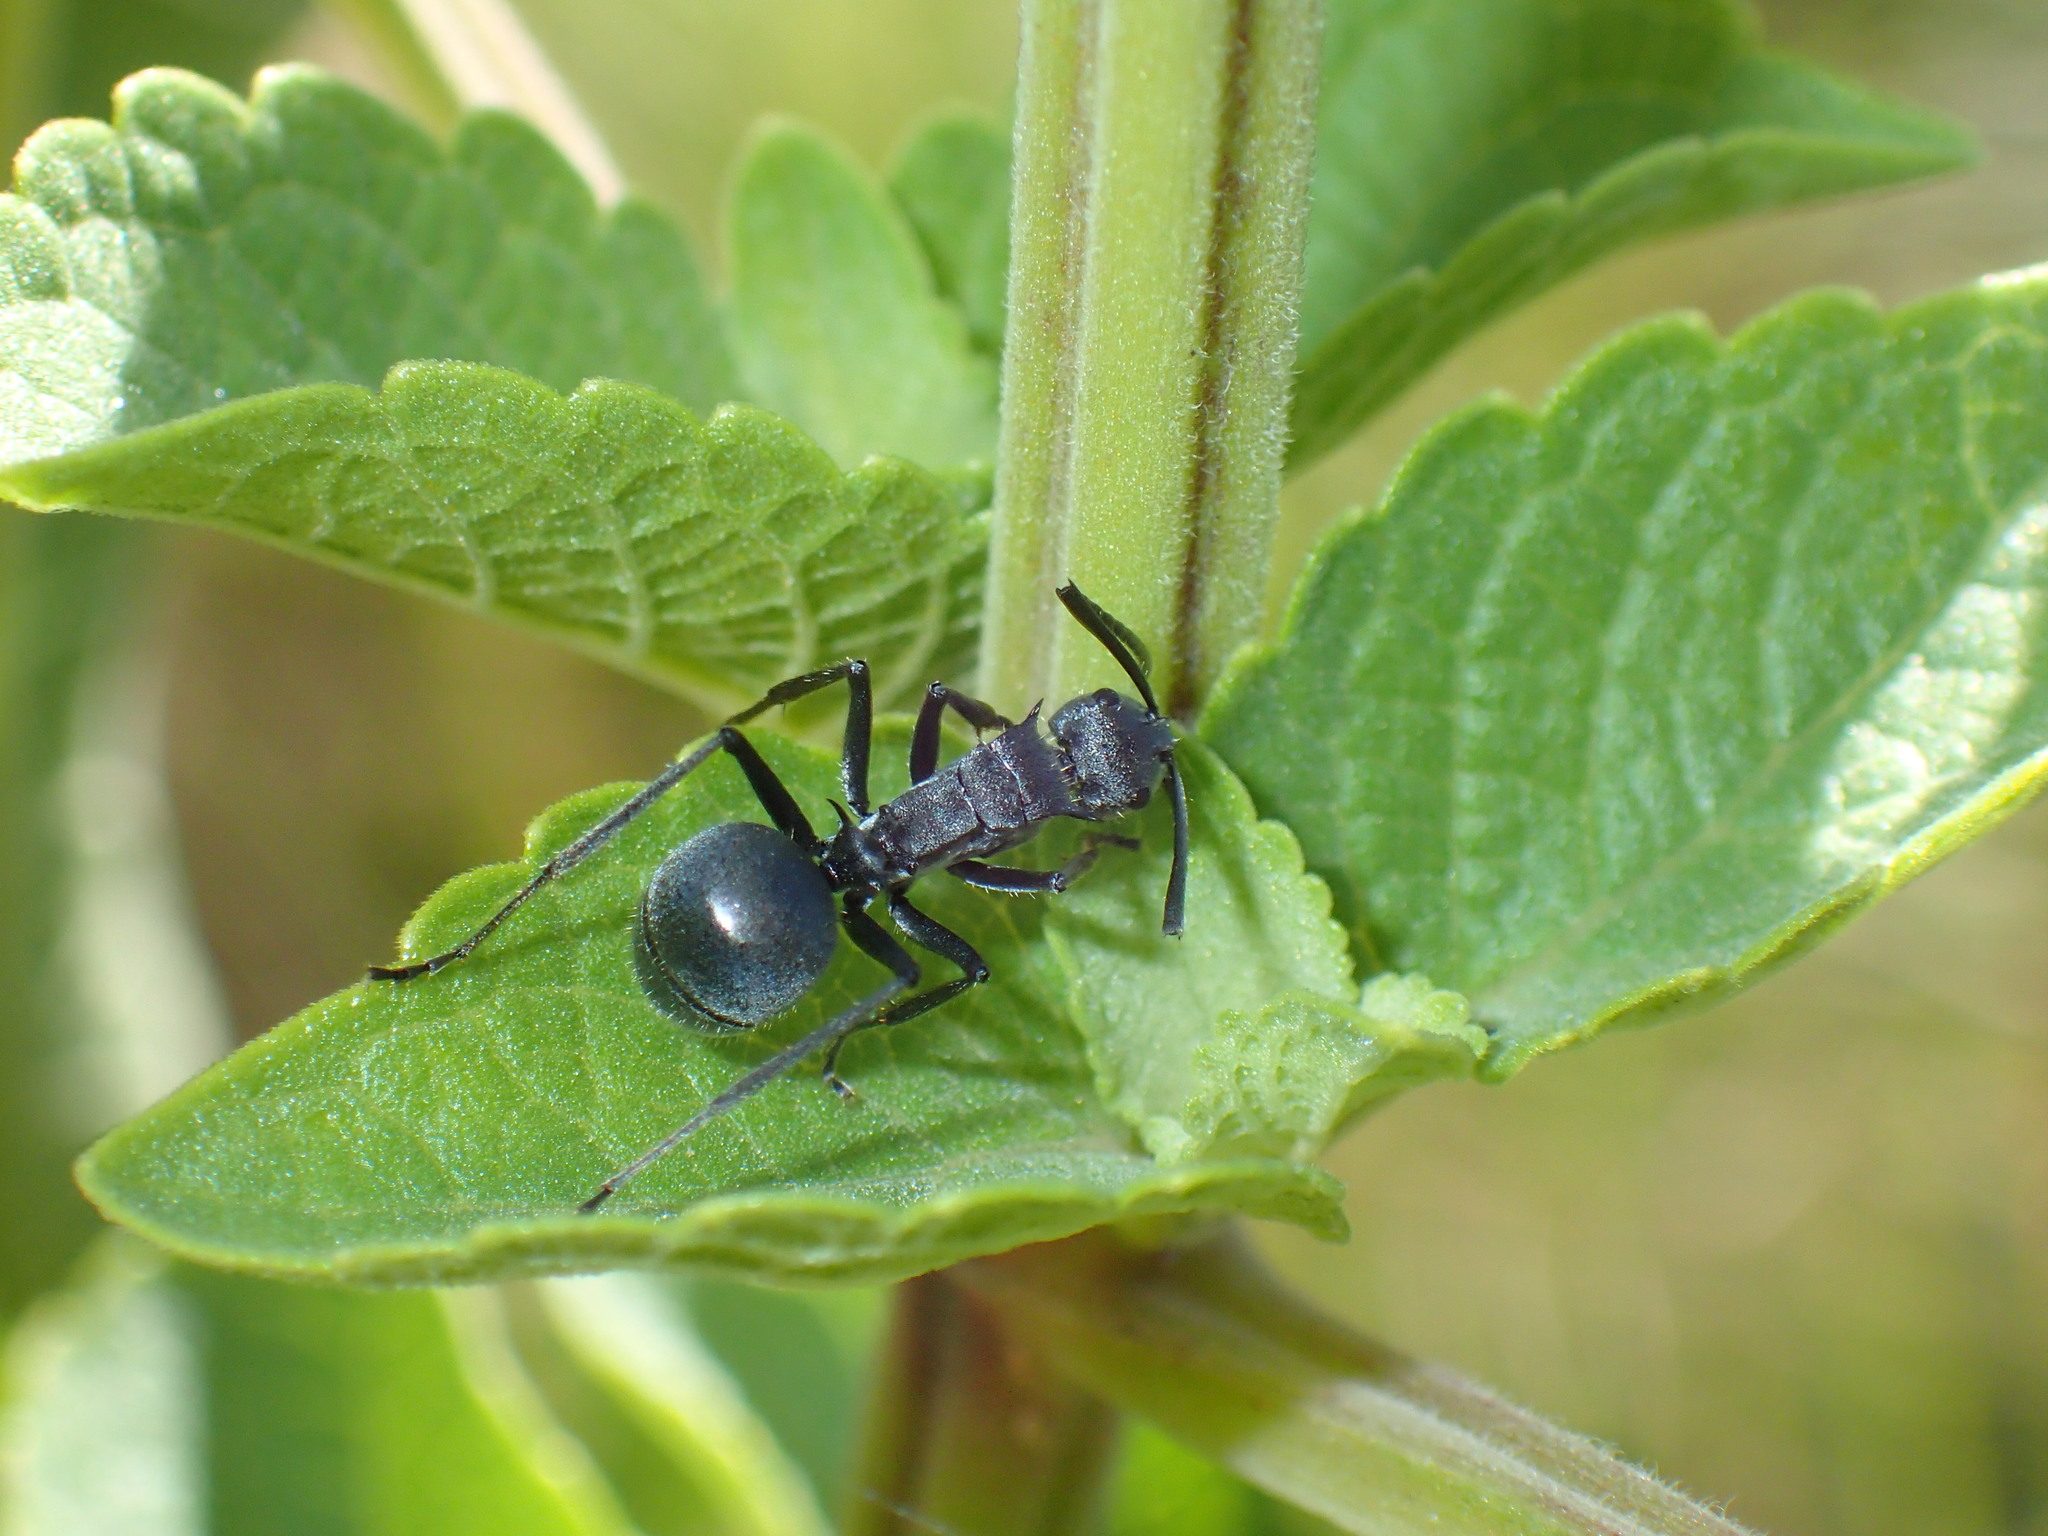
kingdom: Animalia
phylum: Arthropoda
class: Insecta
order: Hymenoptera
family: Formicidae
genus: Polyrhachis
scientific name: Polyrhachis schistacea
